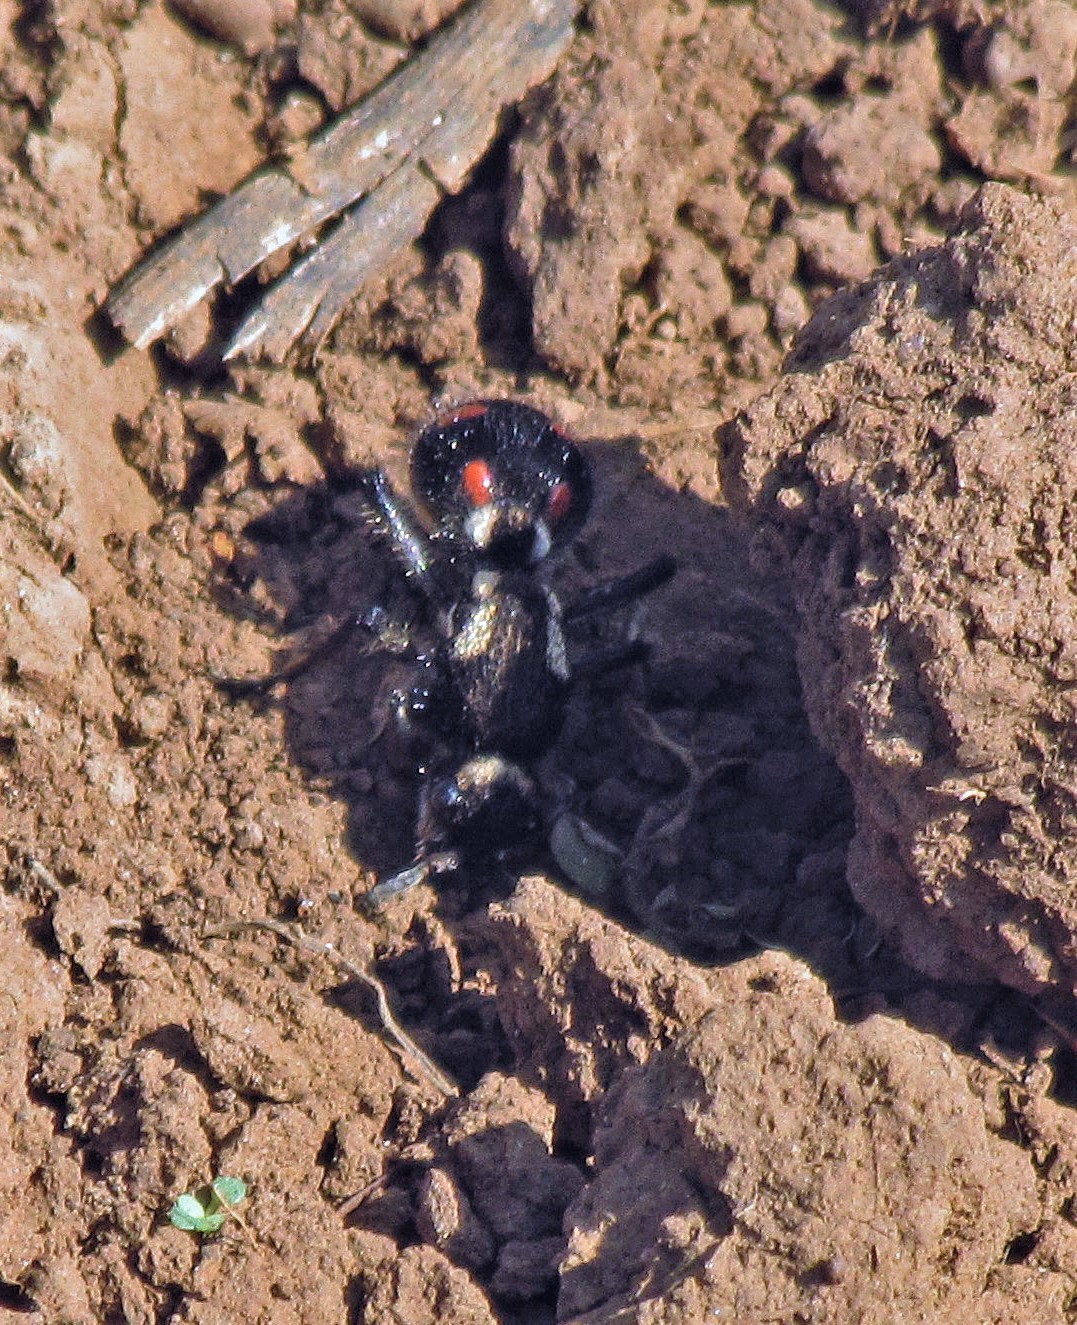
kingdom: Animalia
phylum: Arthropoda
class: Insecta
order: Hymenoptera
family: Mutillidae
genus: Traumatomutilla
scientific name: Traumatomutilla
